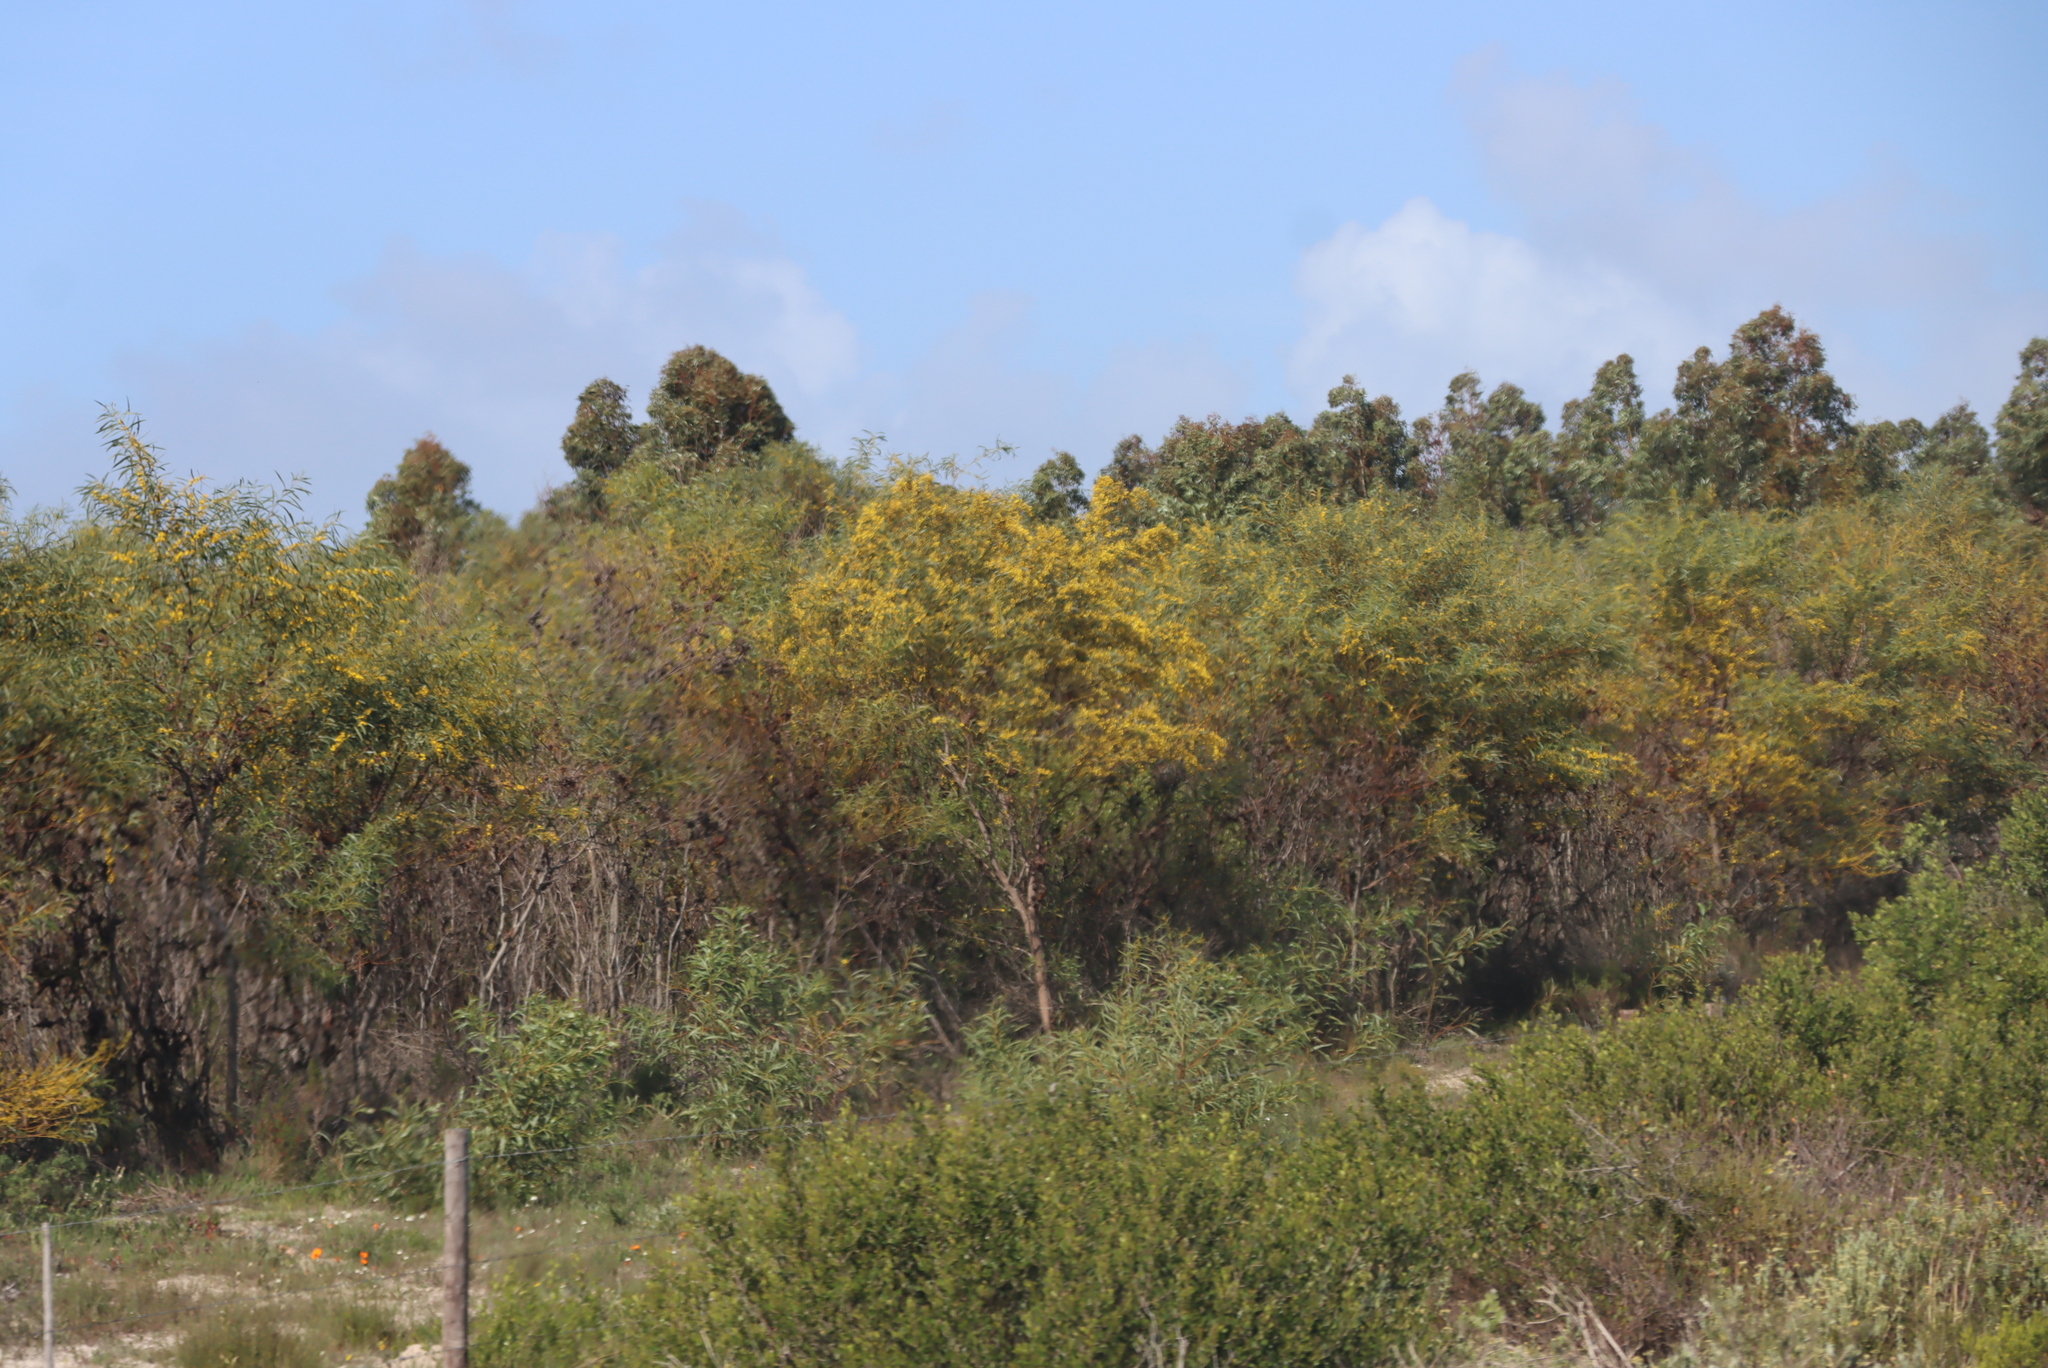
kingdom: Plantae
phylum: Tracheophyta
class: Magnoliopsida
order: Fabales
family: Fabaceae
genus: Acacia
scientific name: Acacia saligna
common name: Orange wattle
